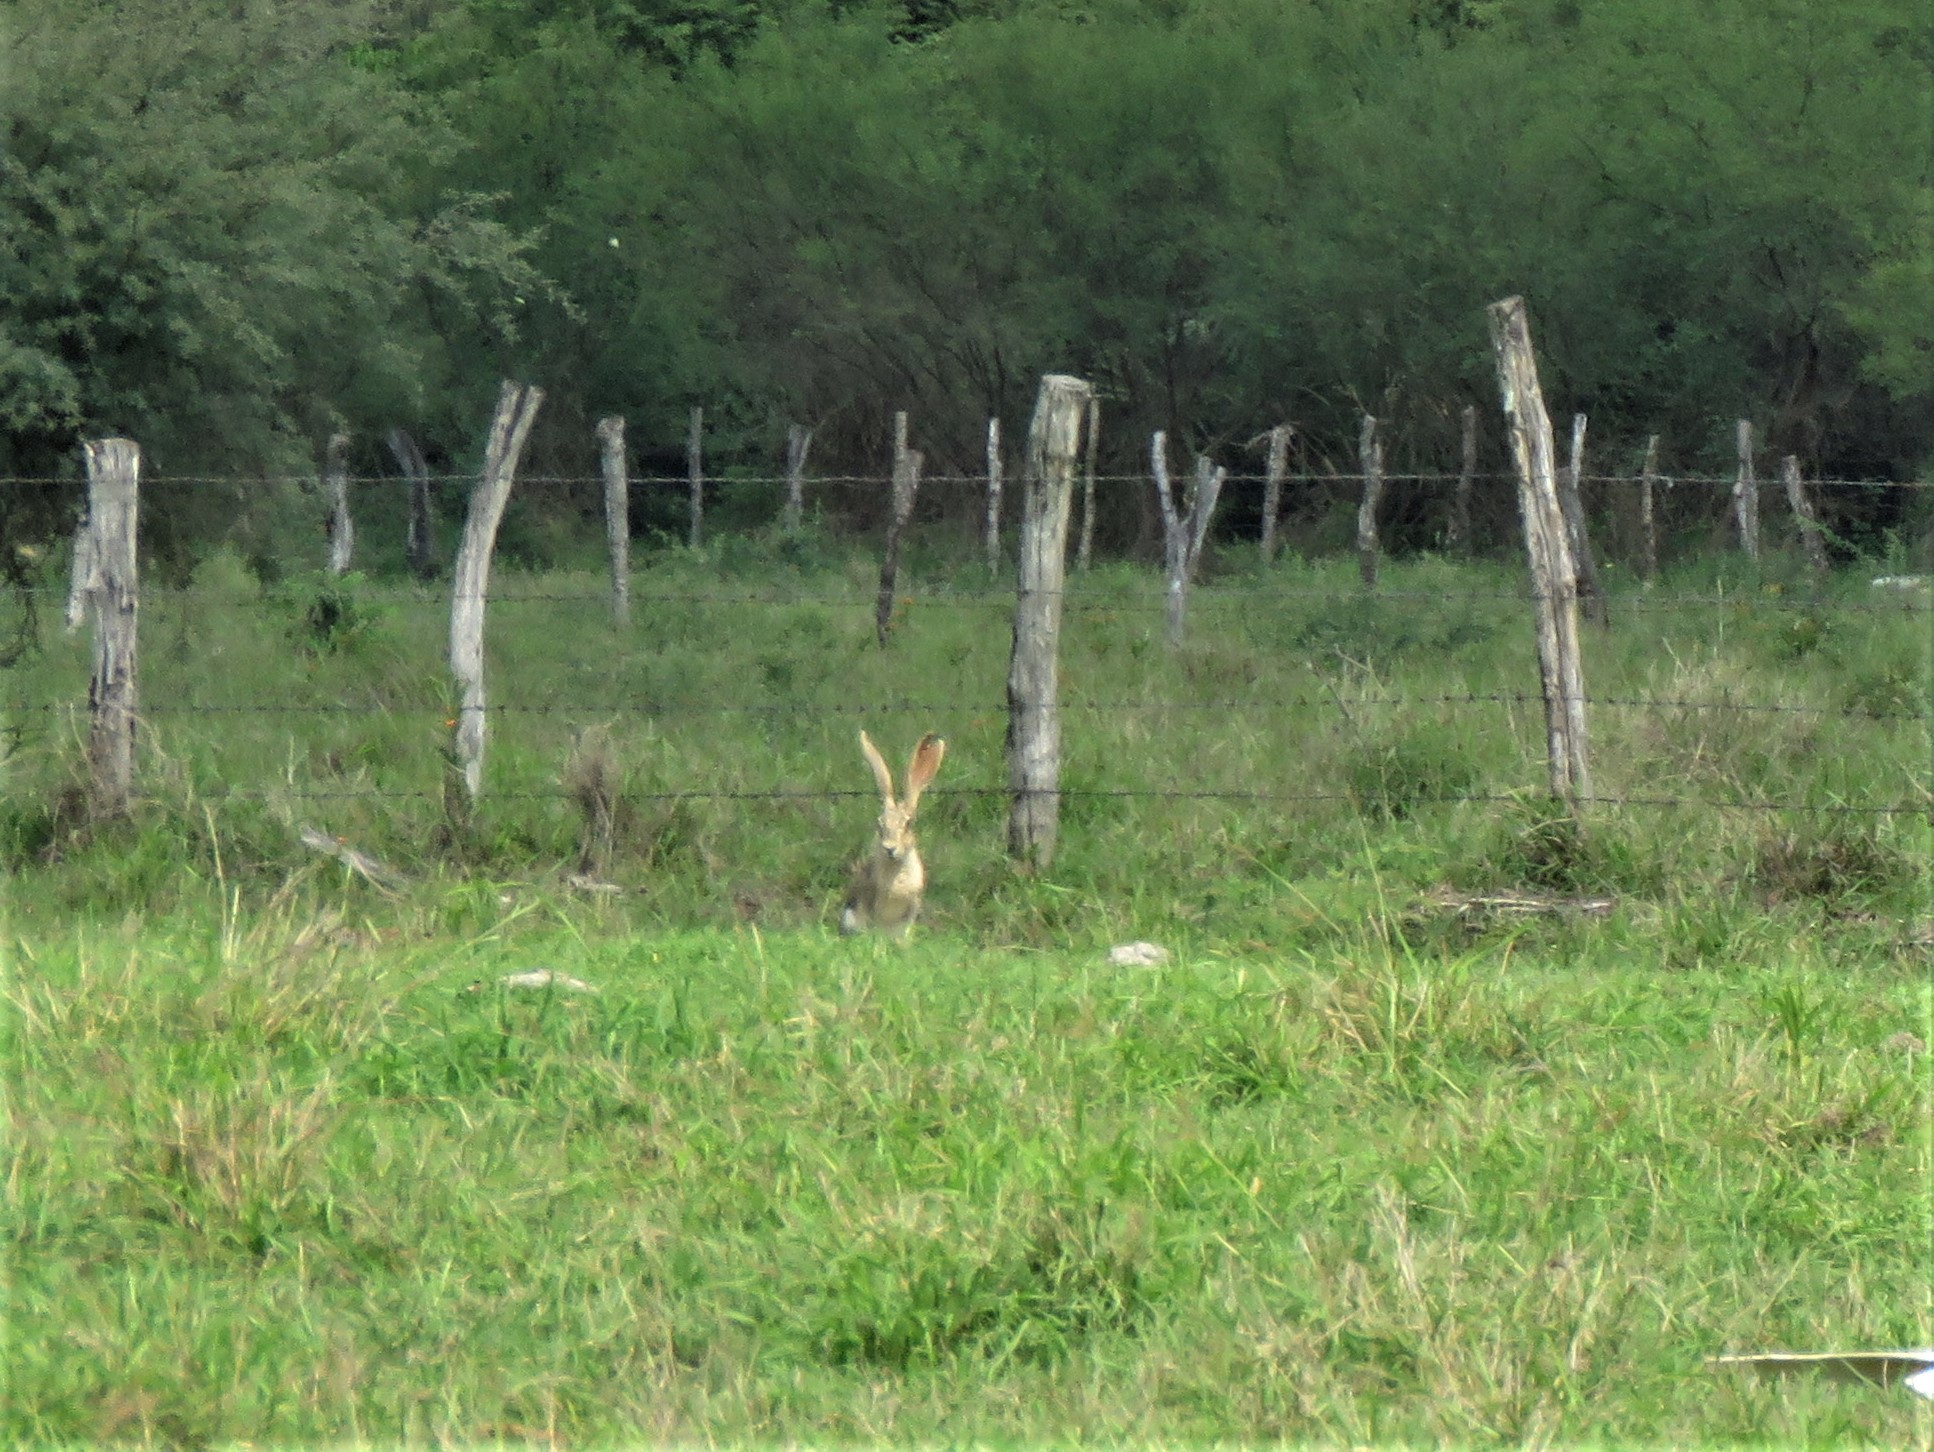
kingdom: Animalia
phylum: Chordata
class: Mammalia
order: Lagomorpha
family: Leporidae
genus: Lepus
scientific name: Lepus californicus
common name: Black-tailed jackrabbit
